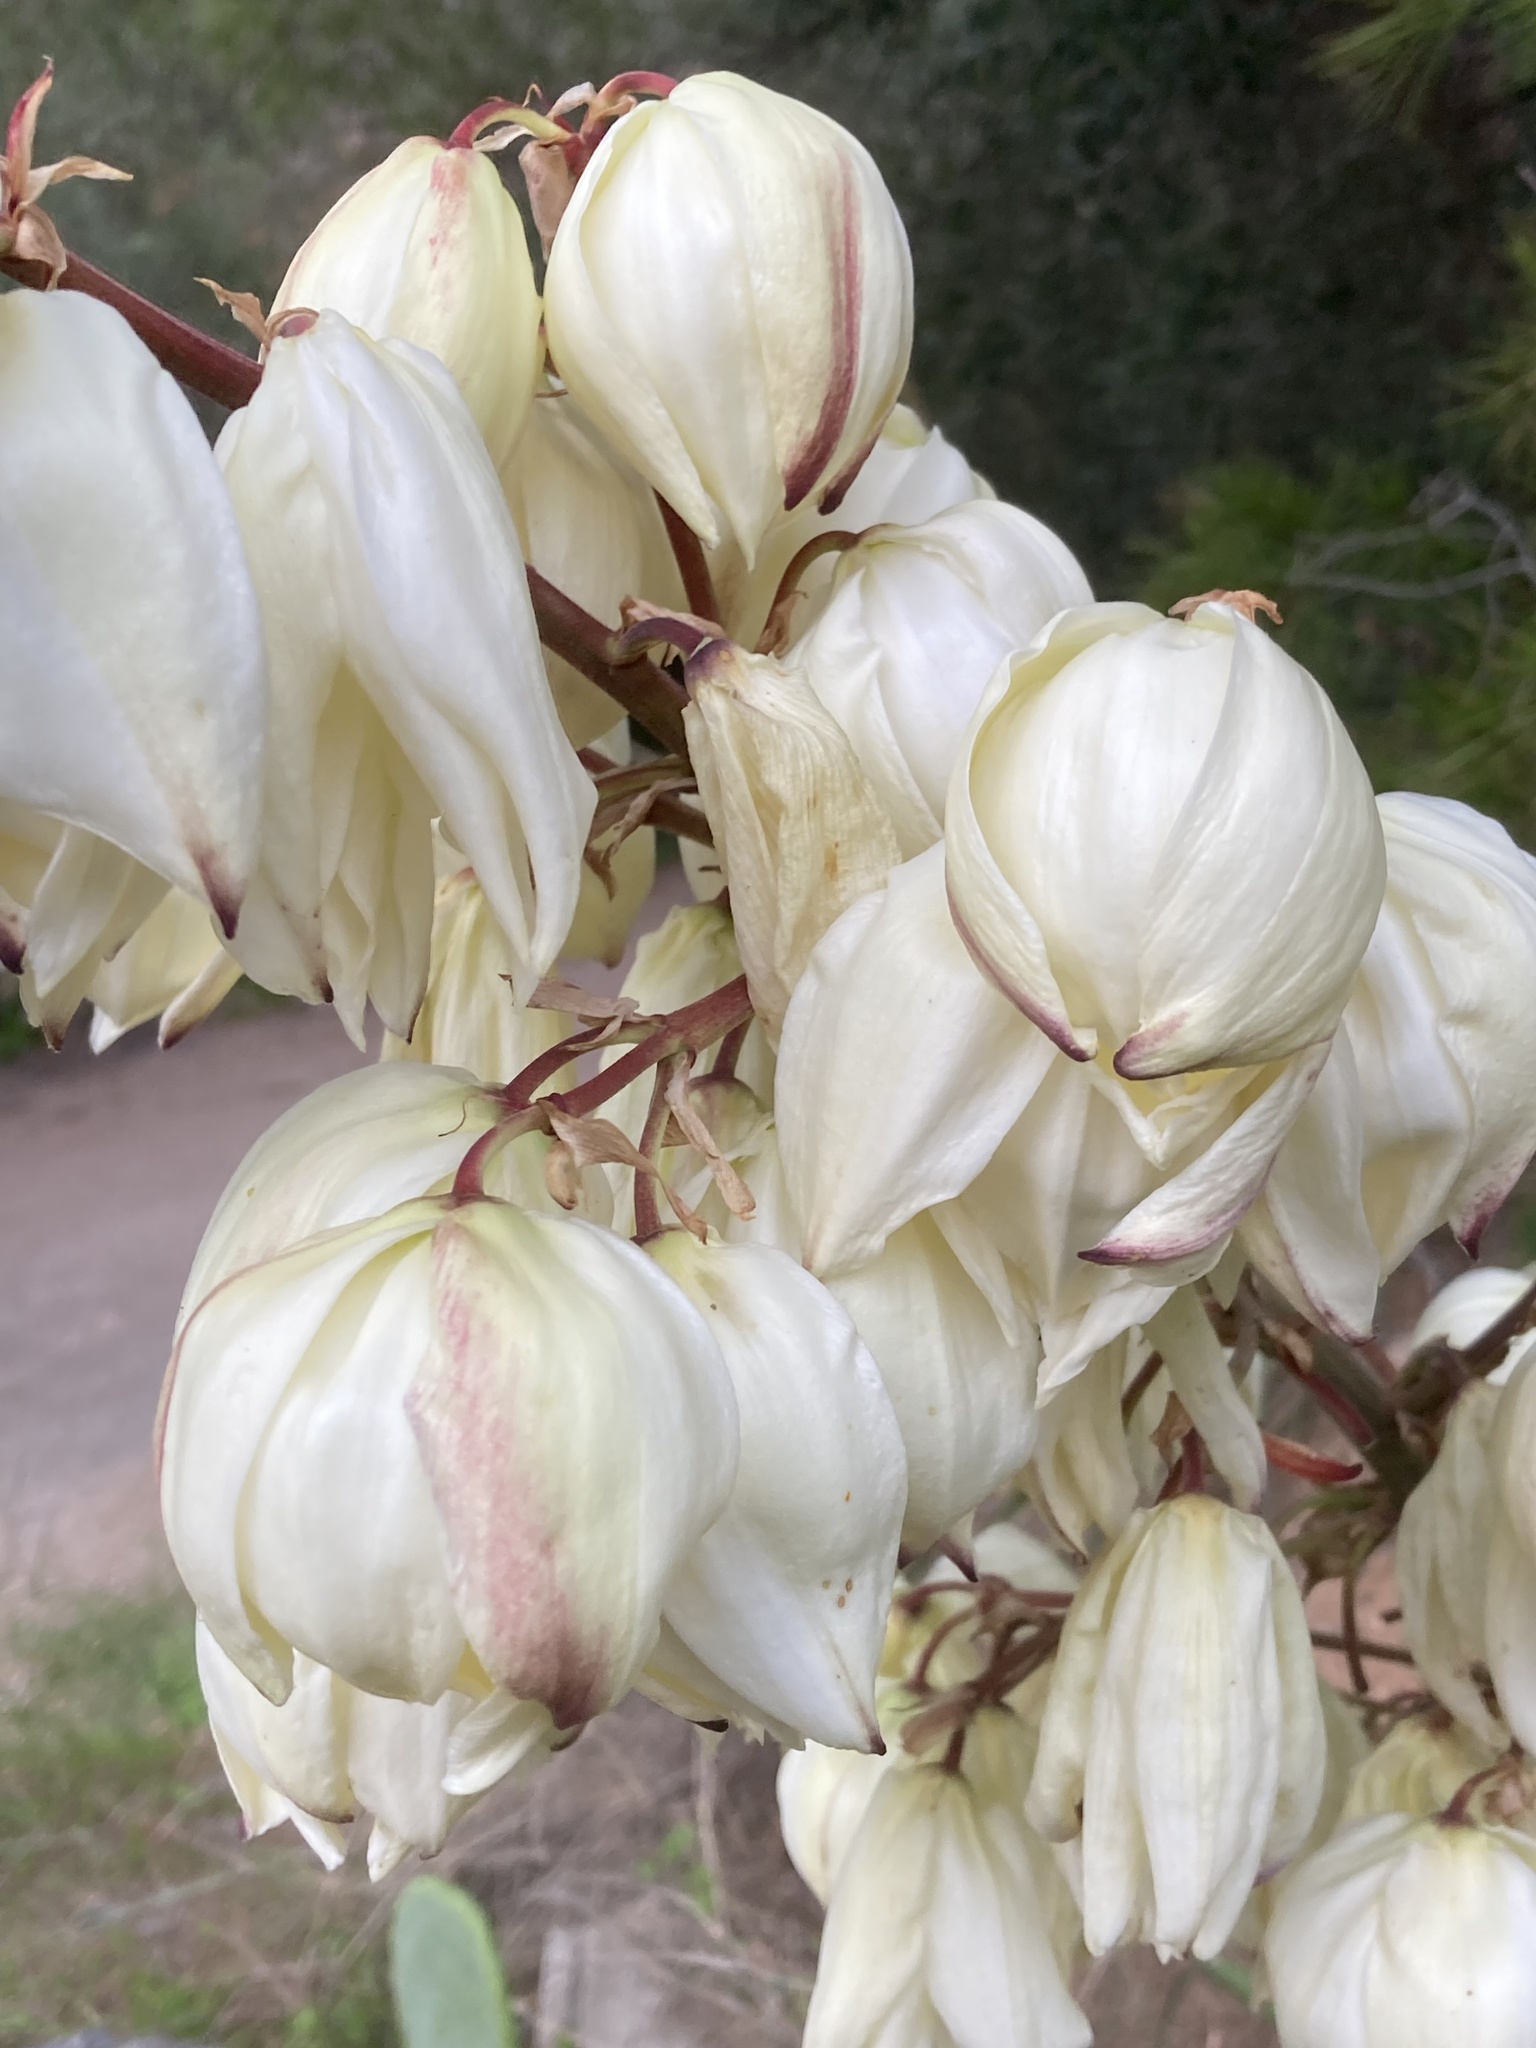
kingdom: Plantae
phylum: Tracheophyta
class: Liliopsida
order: Asparagales
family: Asparagaceae
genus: Yucca
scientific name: Yucca gloriosa
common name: Spanish-dagger
